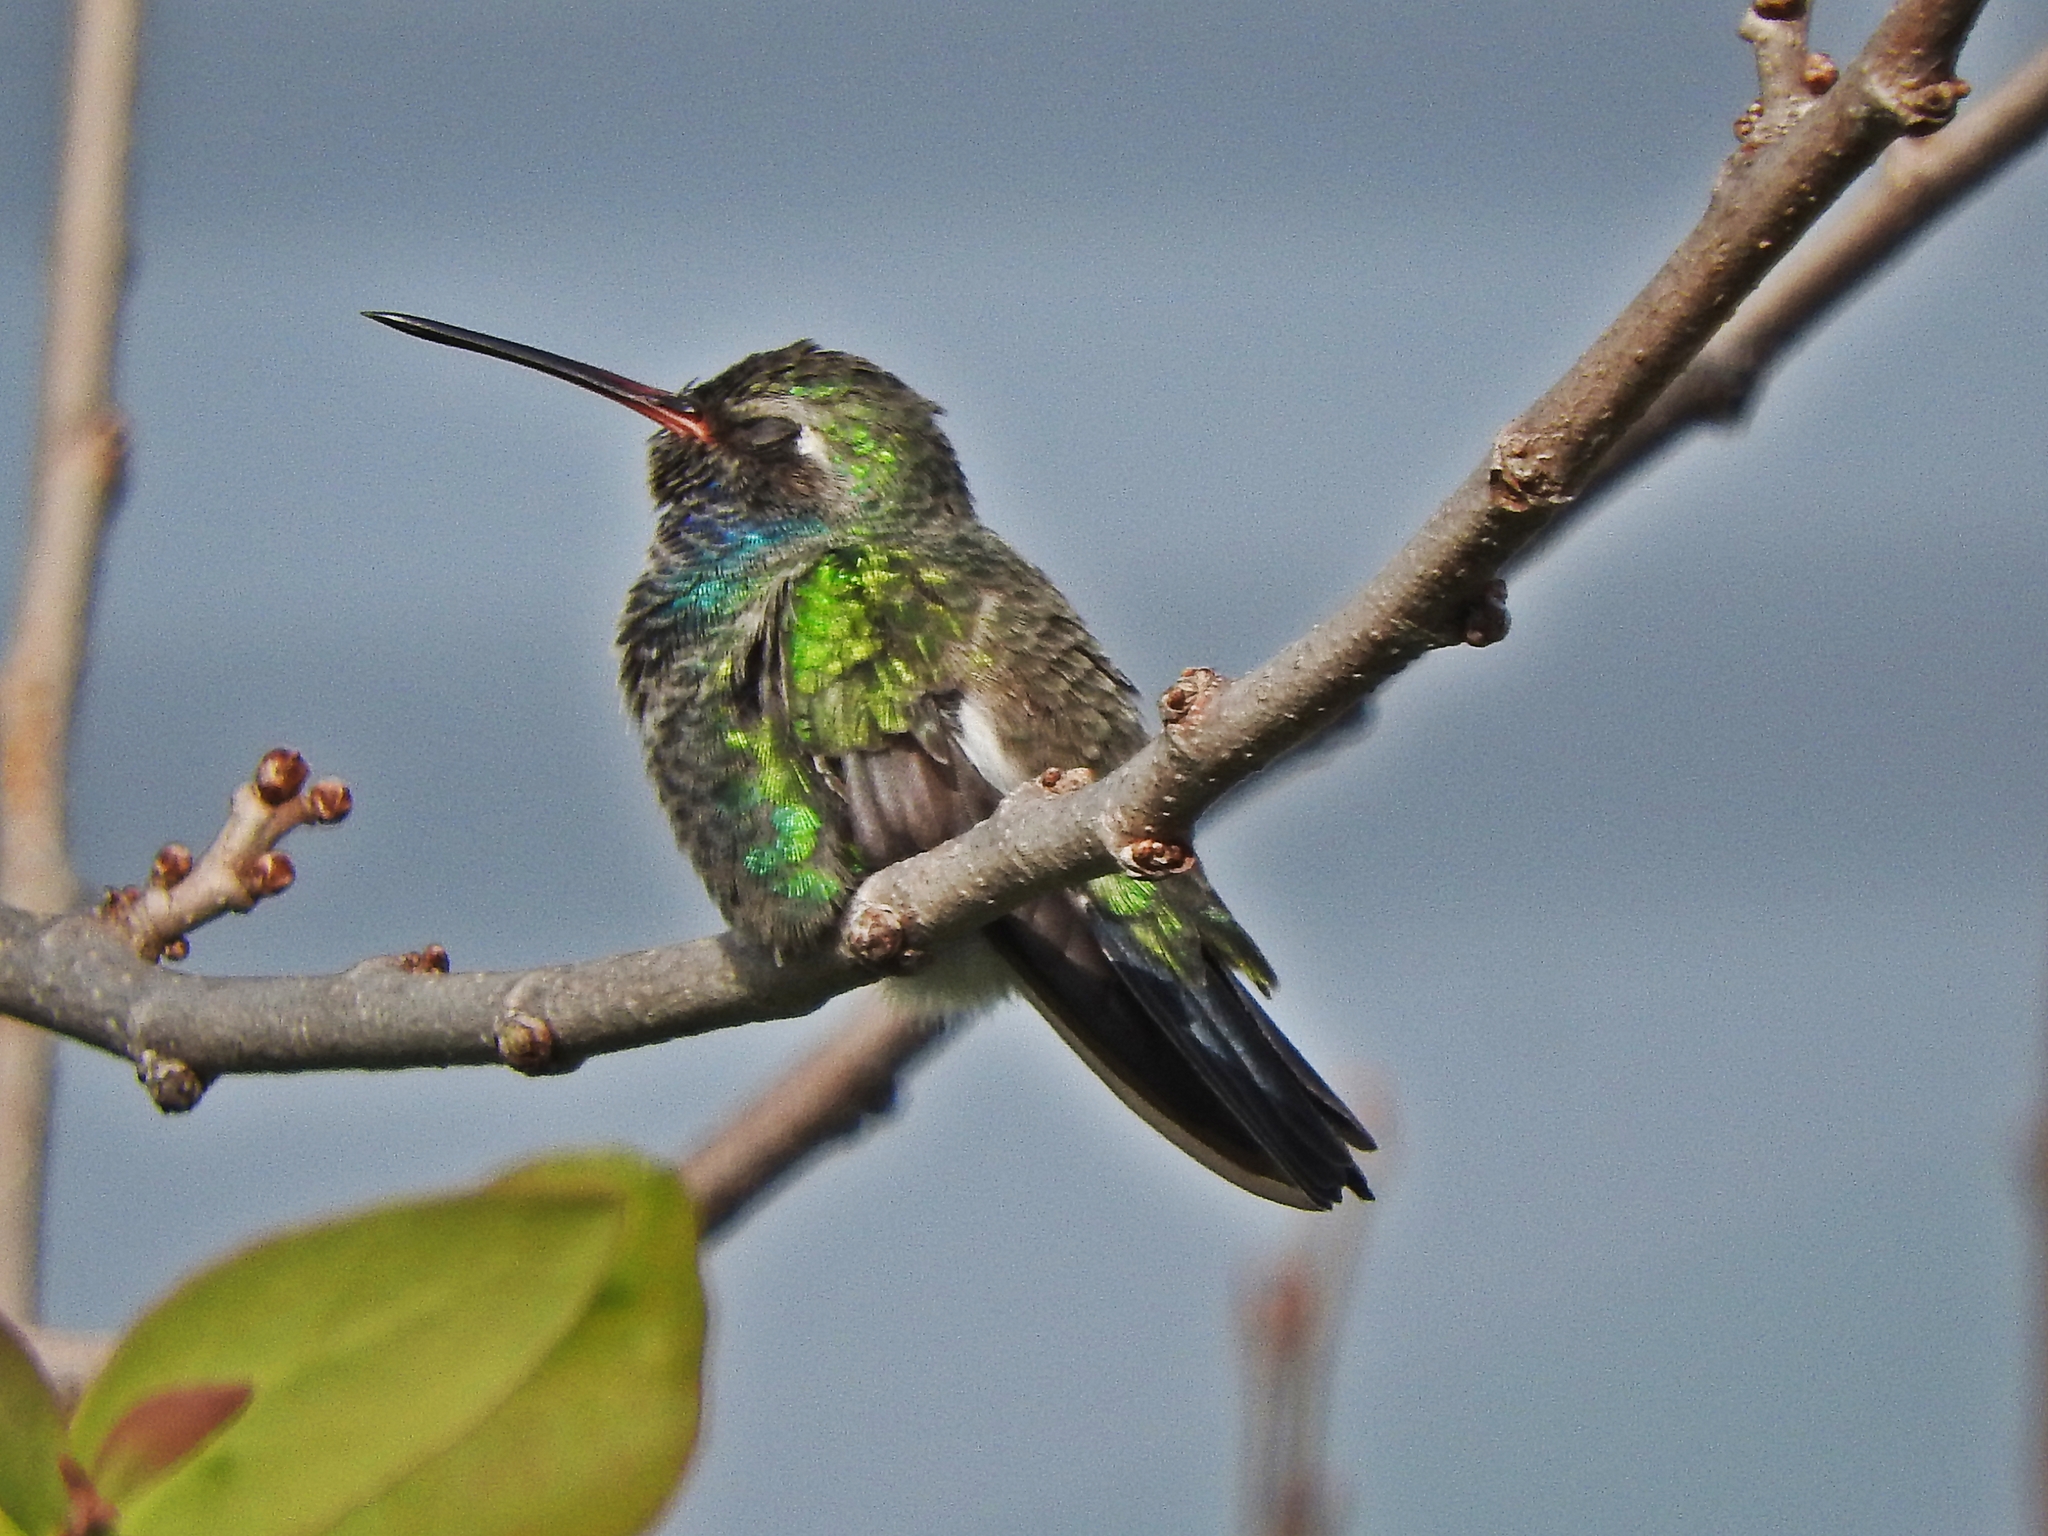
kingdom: Animalia
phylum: Chordata
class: Aves
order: Apodiformes
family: Trochilidae
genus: Cynanthus
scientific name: Cynanthus latirostris
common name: Broad-billed hummingbird
